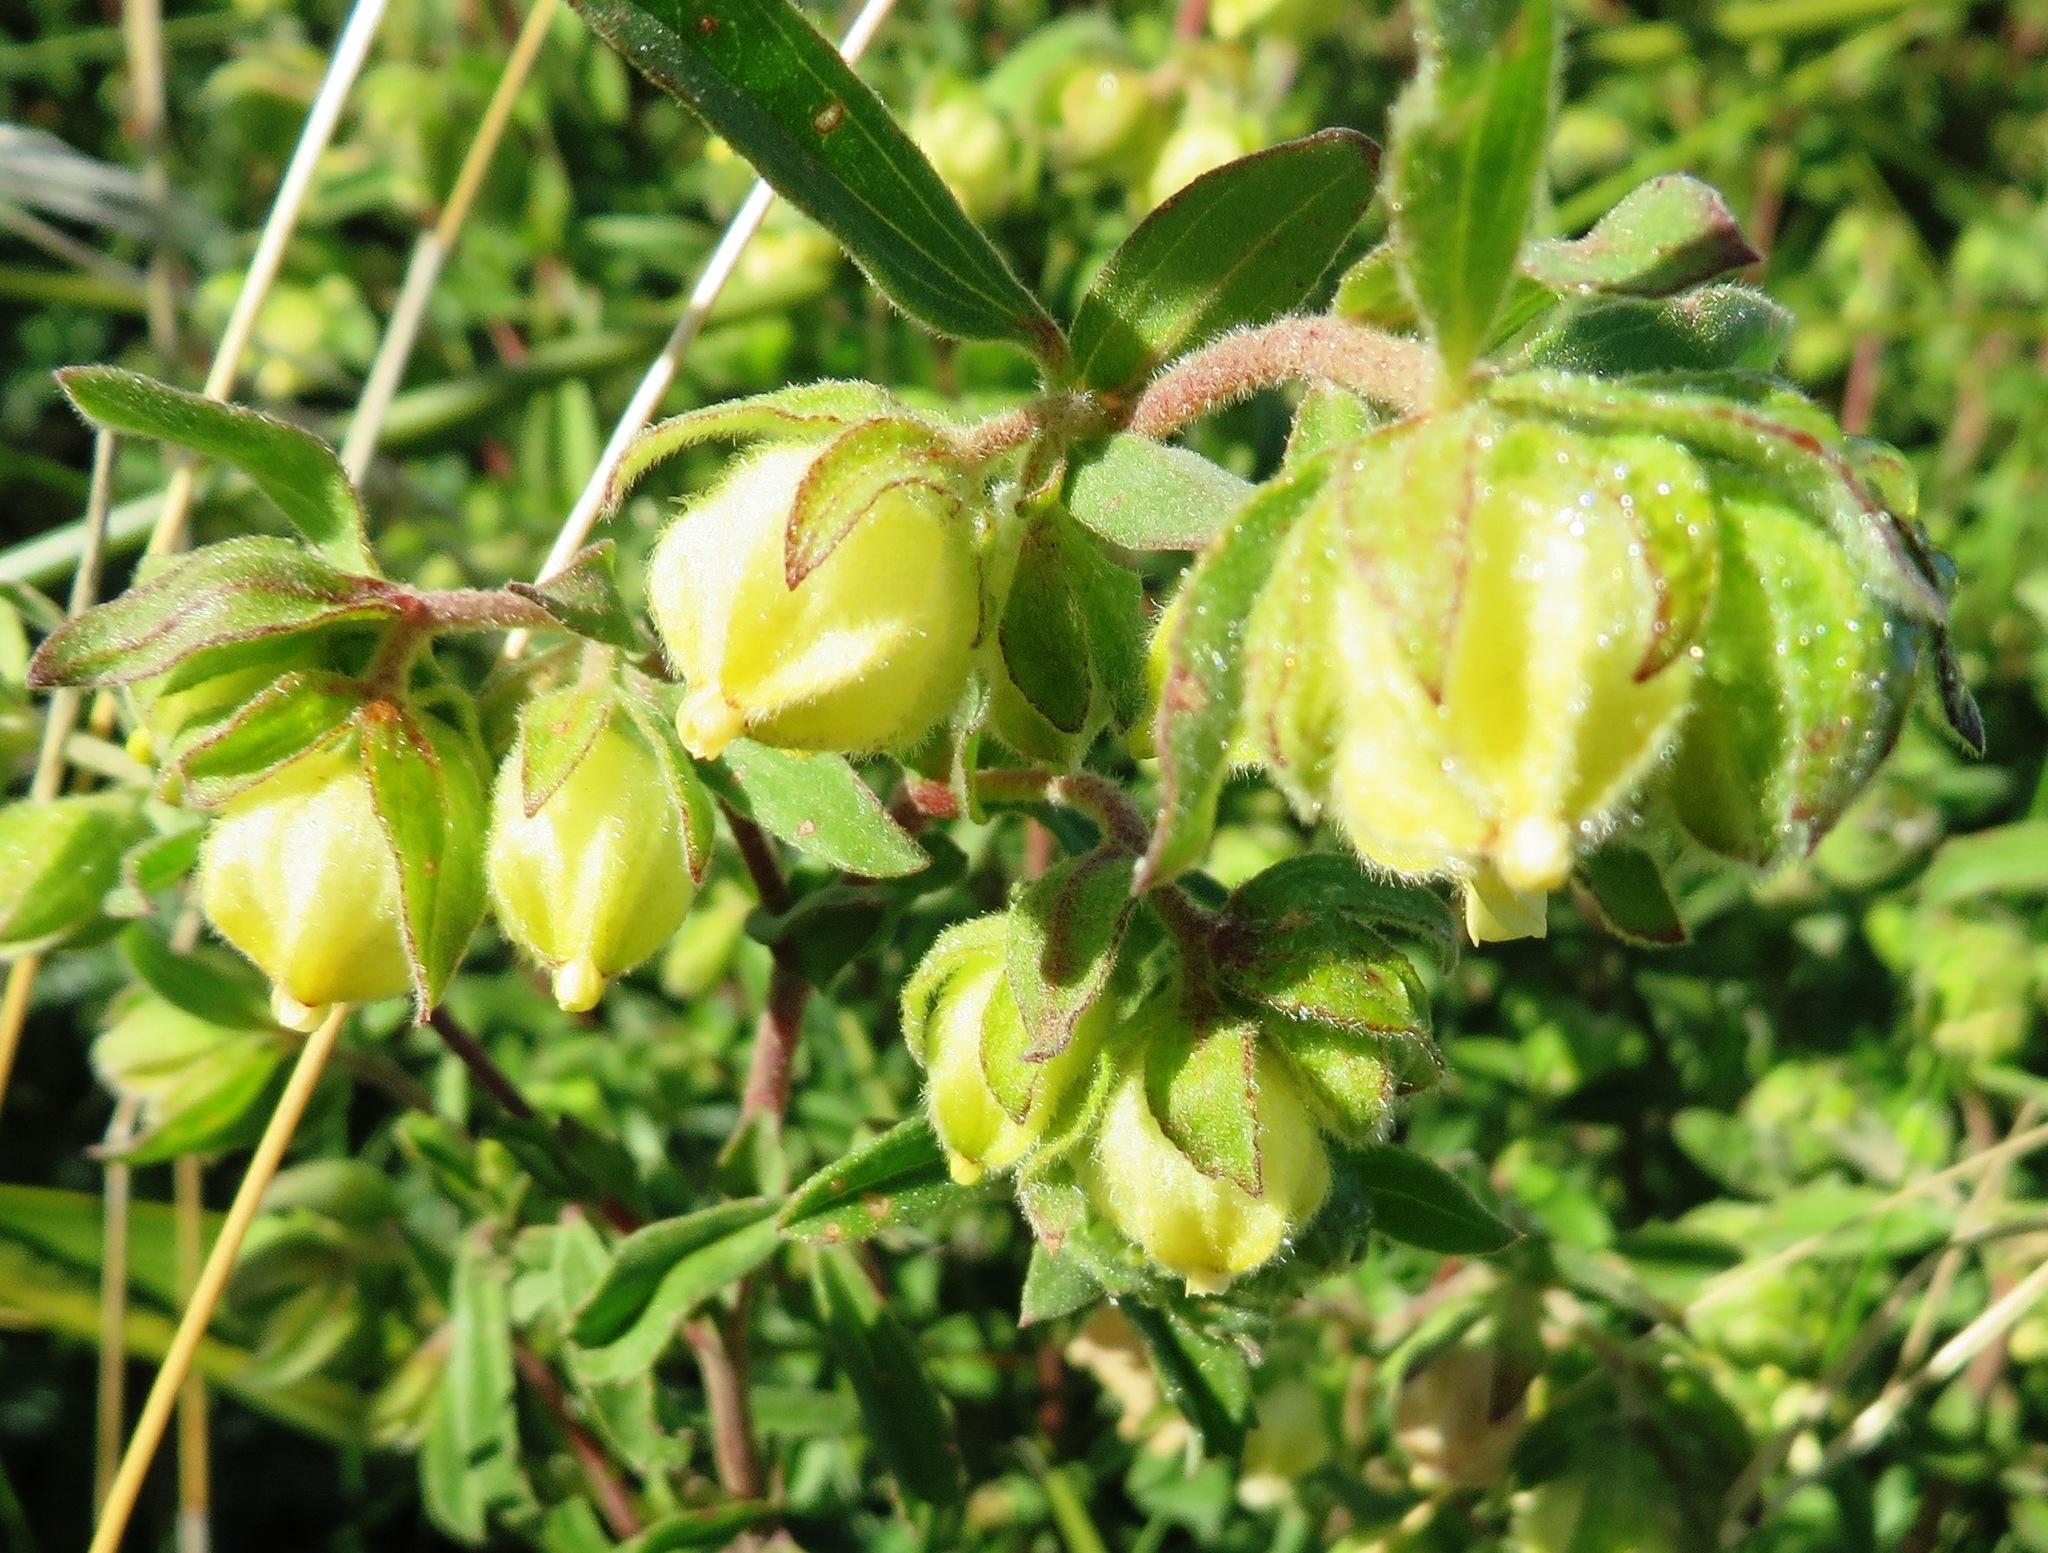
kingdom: Plantae
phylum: Tracheophyta
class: Magnoliopsida
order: Malvales
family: Malvaceae
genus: Hermannia
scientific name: Hermannia hyssopifolia
